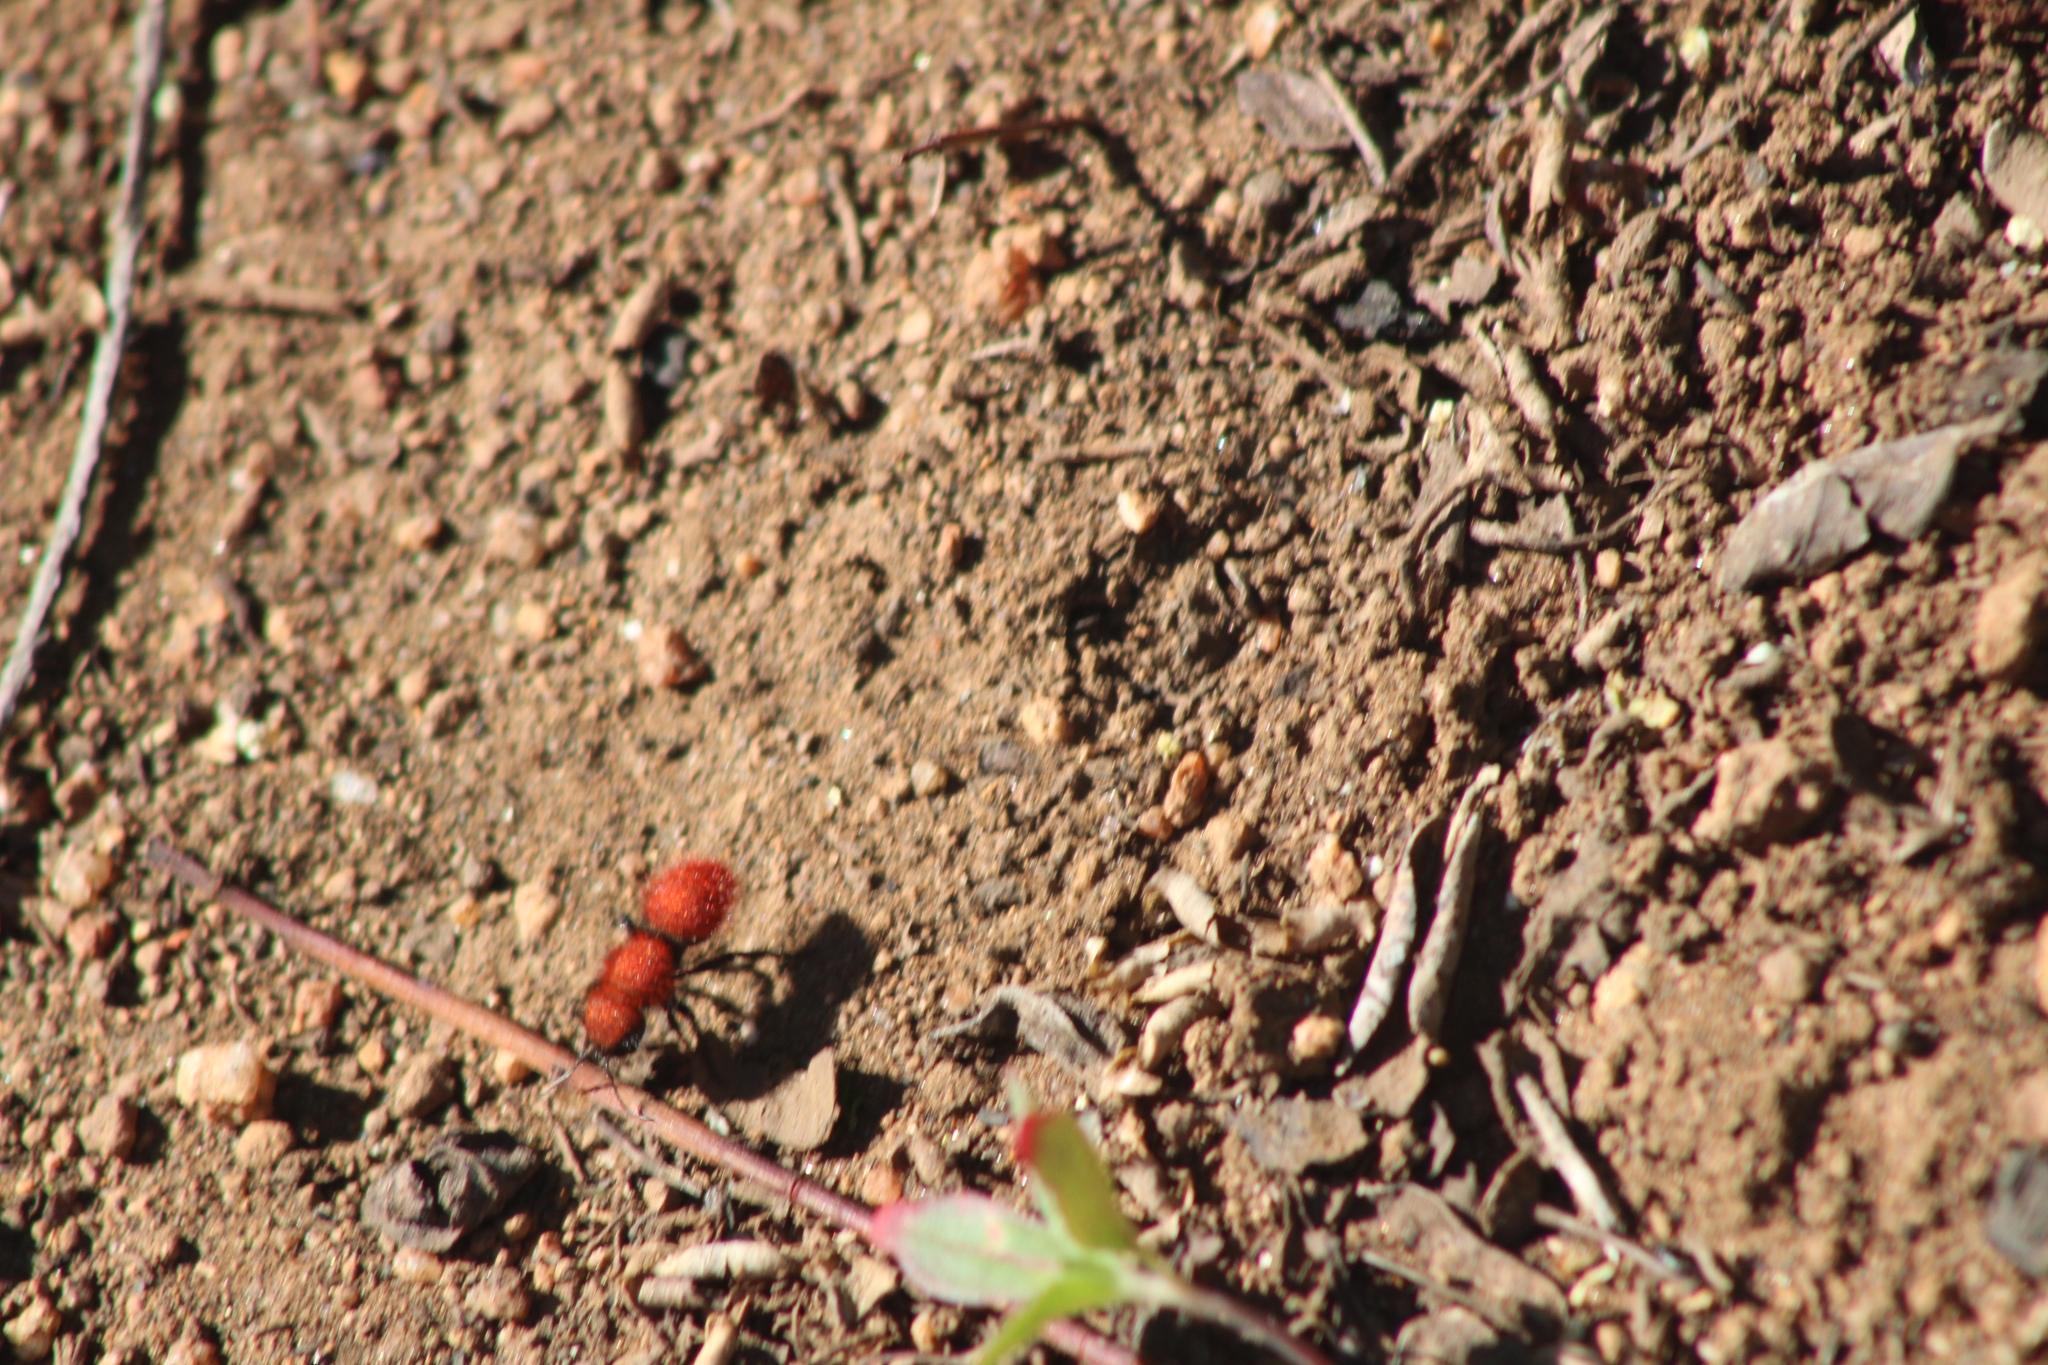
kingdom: Animalia
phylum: Arthropoda
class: Insecta
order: Hymenoptera
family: Mutillidae
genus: Dasymutilla
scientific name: Dasymutilla
